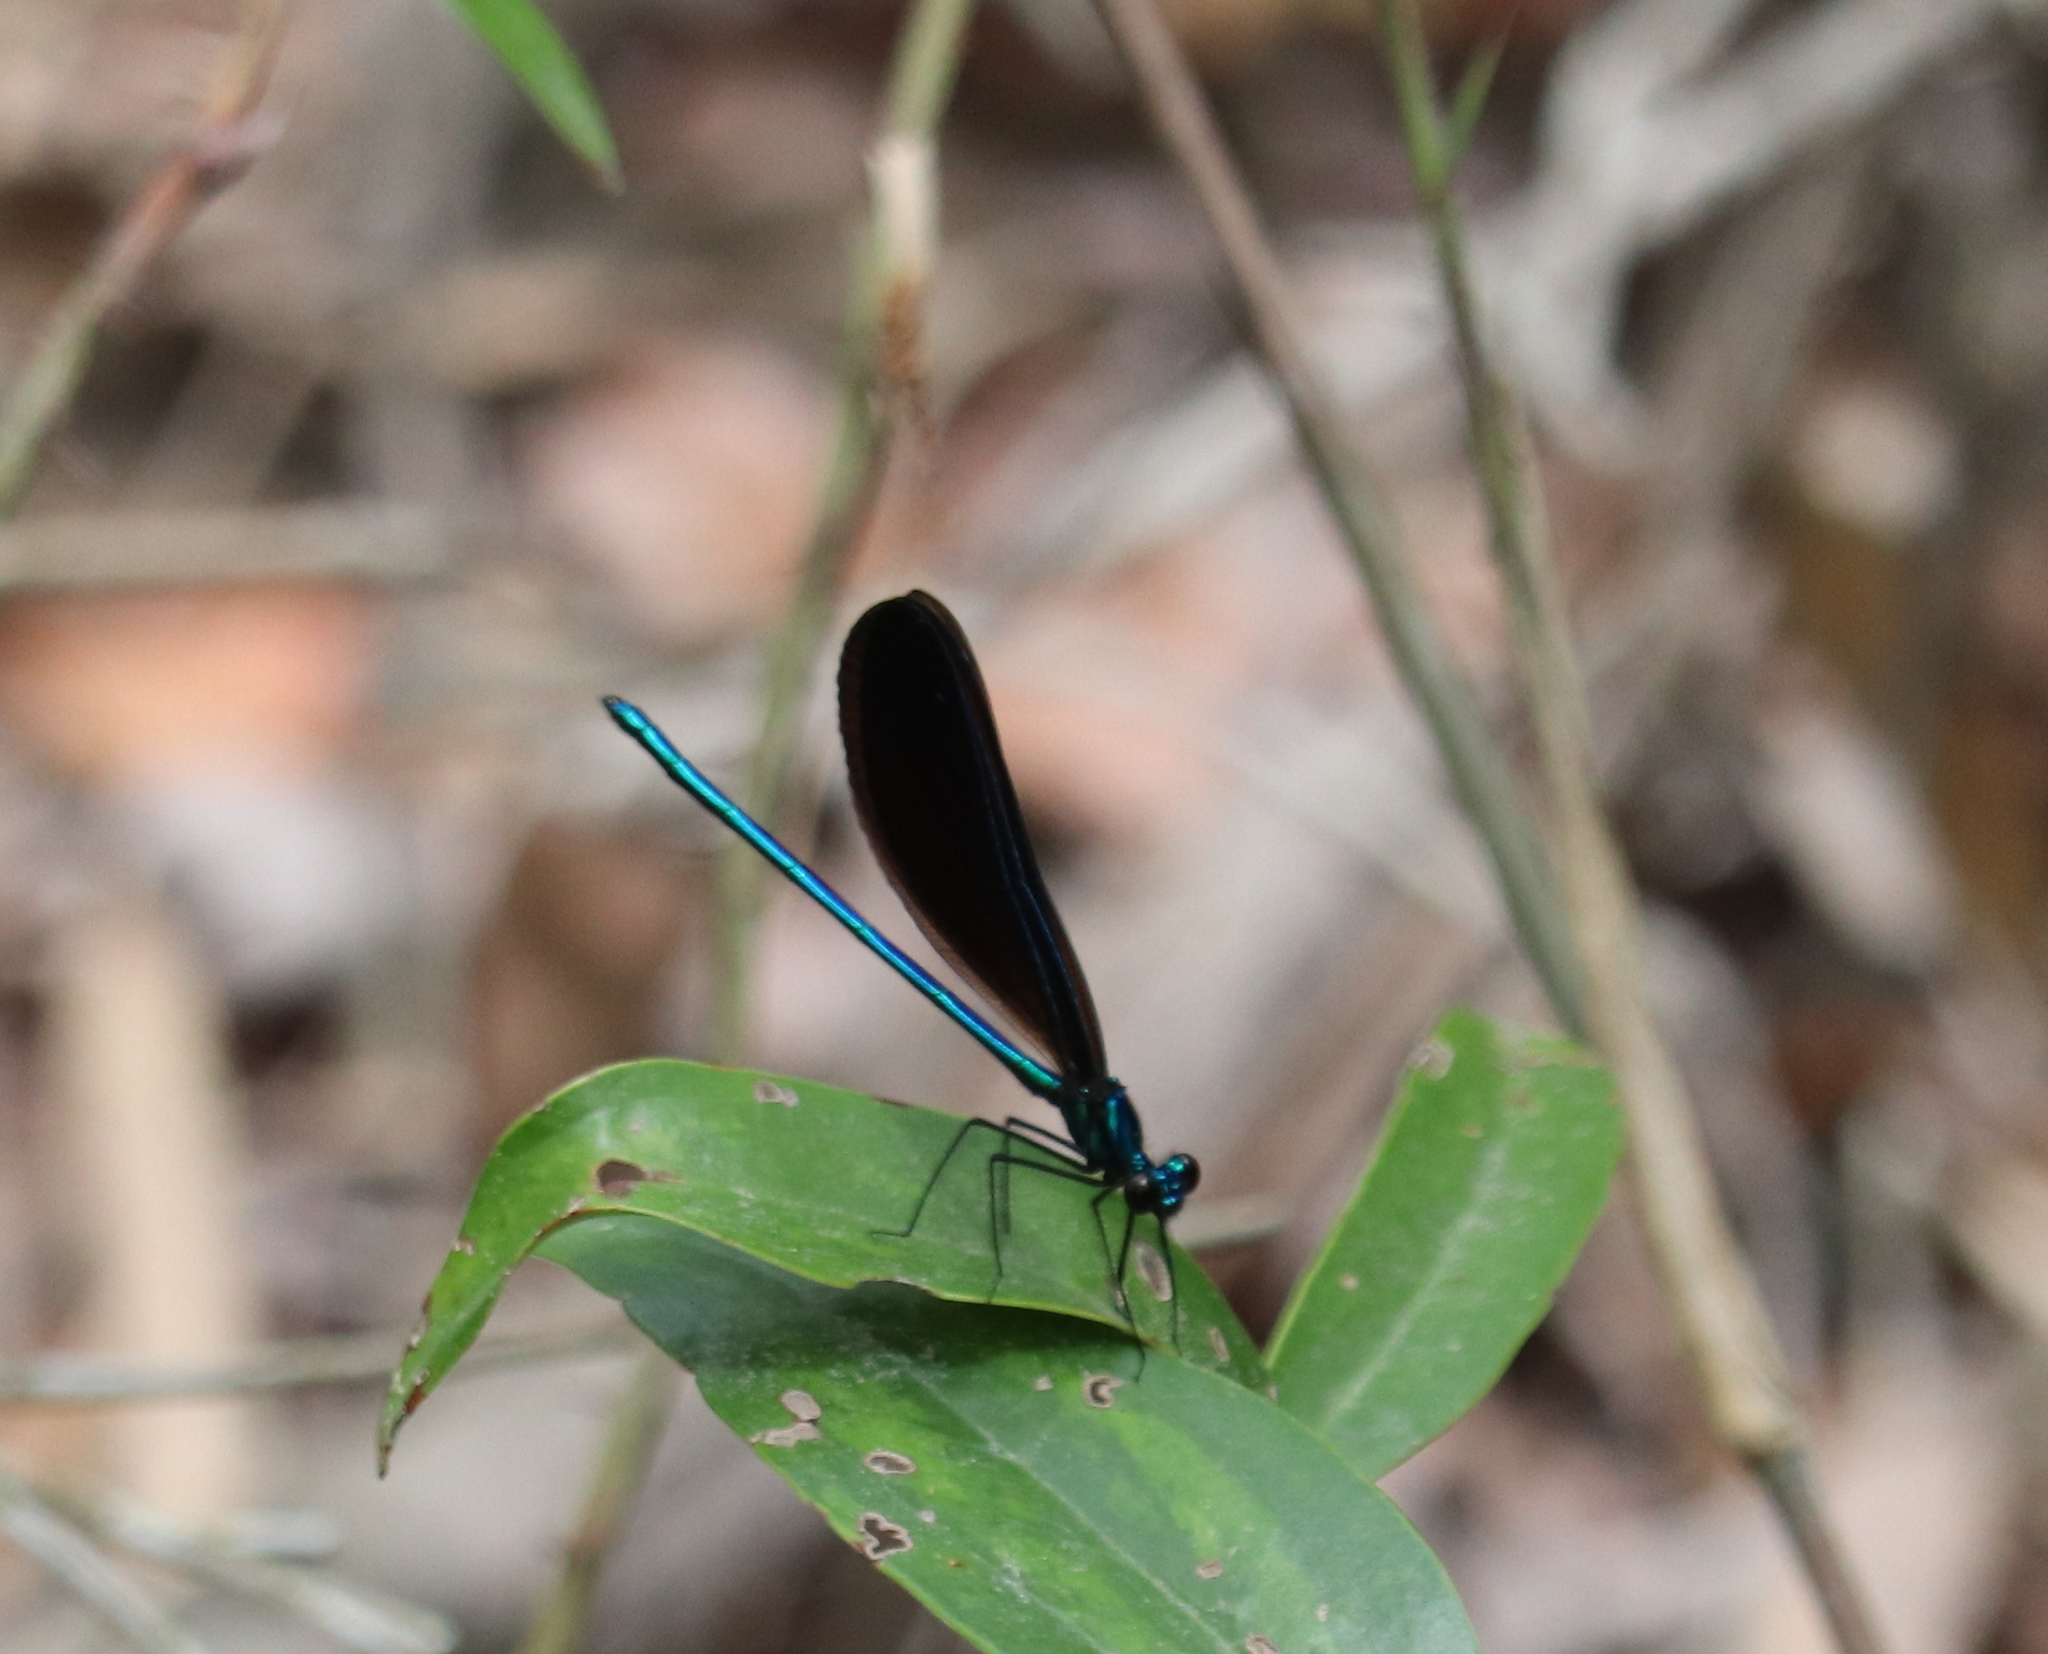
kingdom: Animalia
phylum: Arthropoda
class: Insecta
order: Odonata
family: Calopterygidae
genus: Calopteryx
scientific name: Calopteryx maculata
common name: Ebony jewelwing
